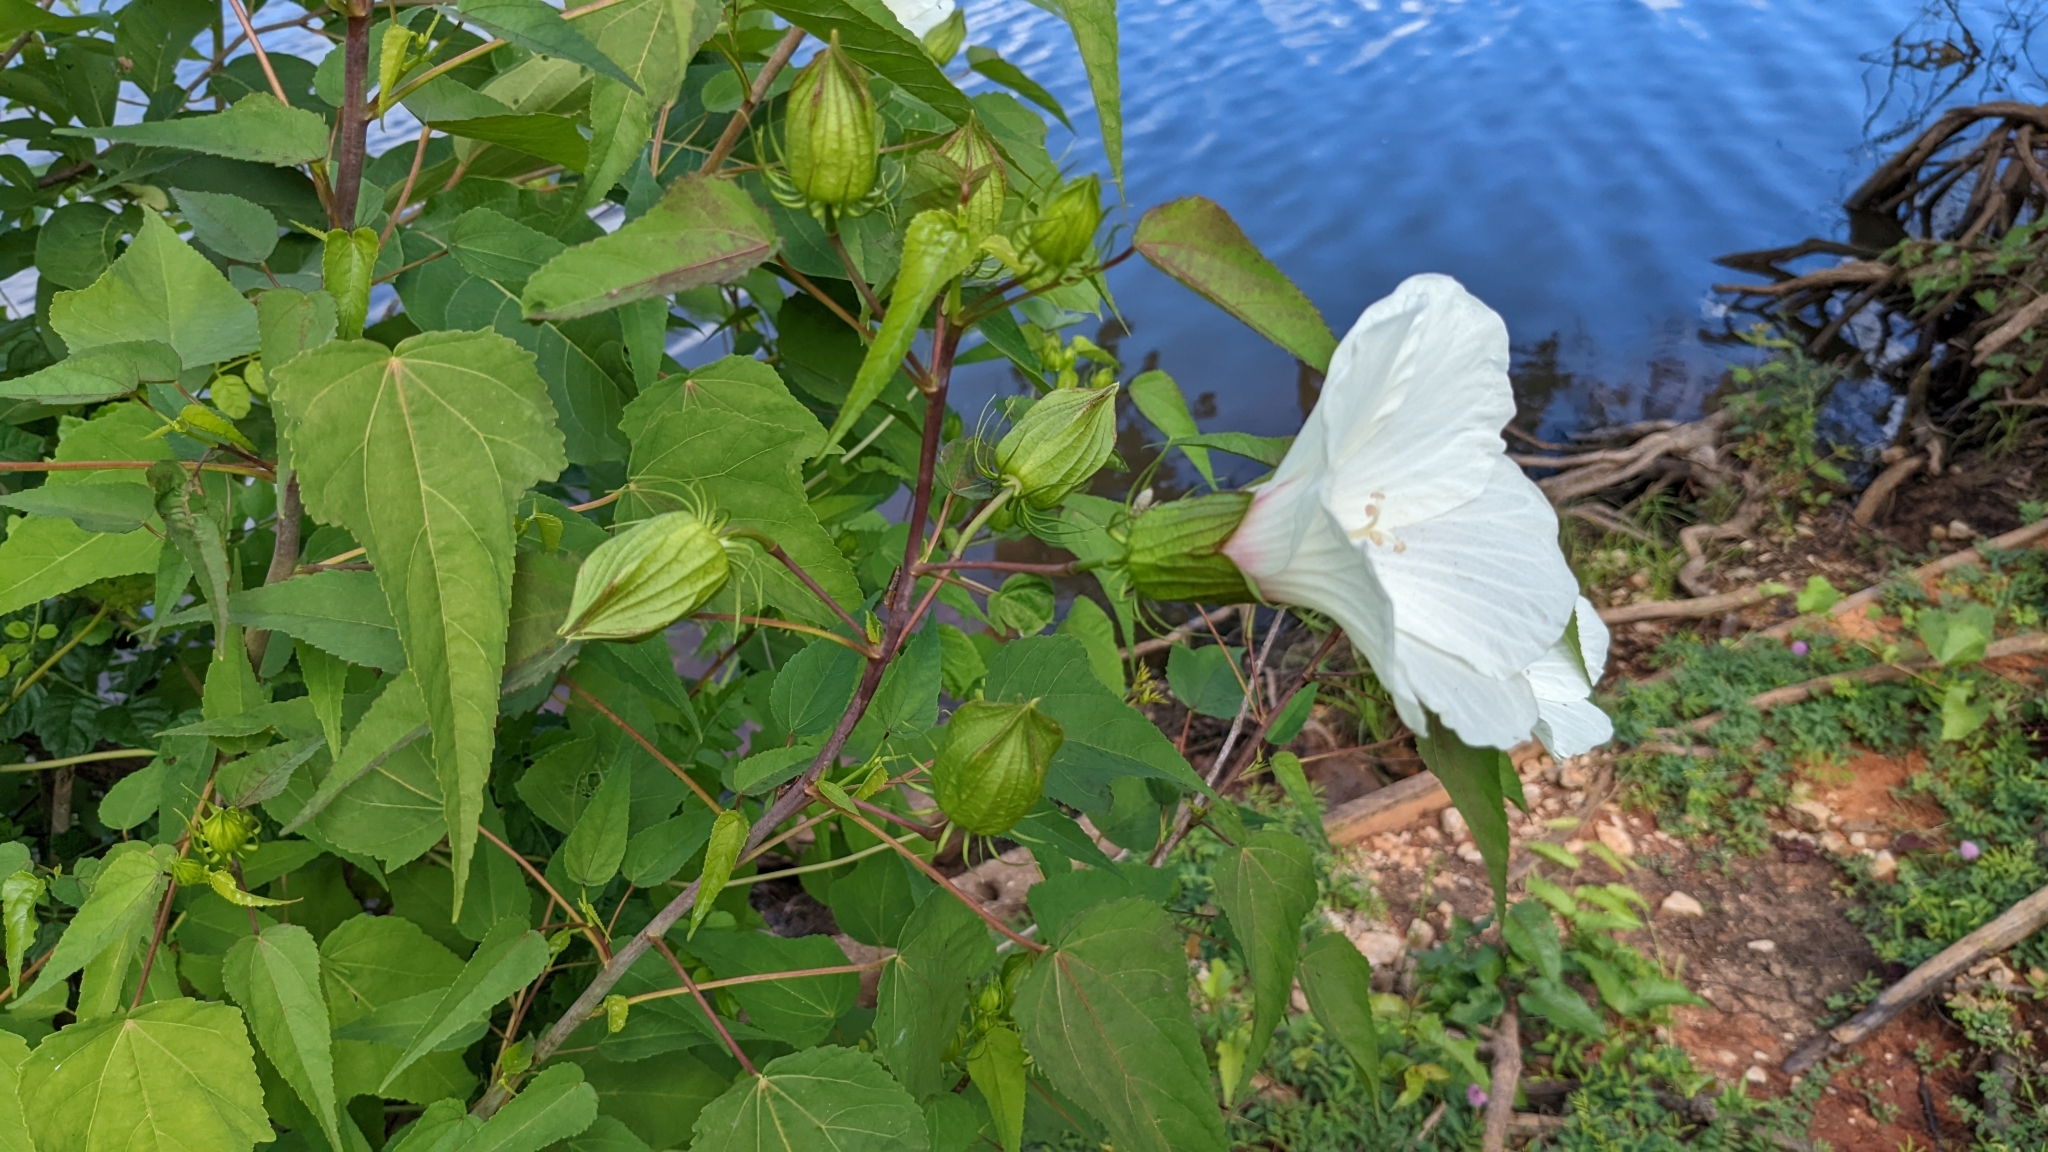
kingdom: Plantae
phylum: Tracheophyta
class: Magnoliopsida
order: Malvales
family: Malvaceae
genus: Hibiscus
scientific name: Hibiscus laevis
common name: Scarlet rose-mallow
